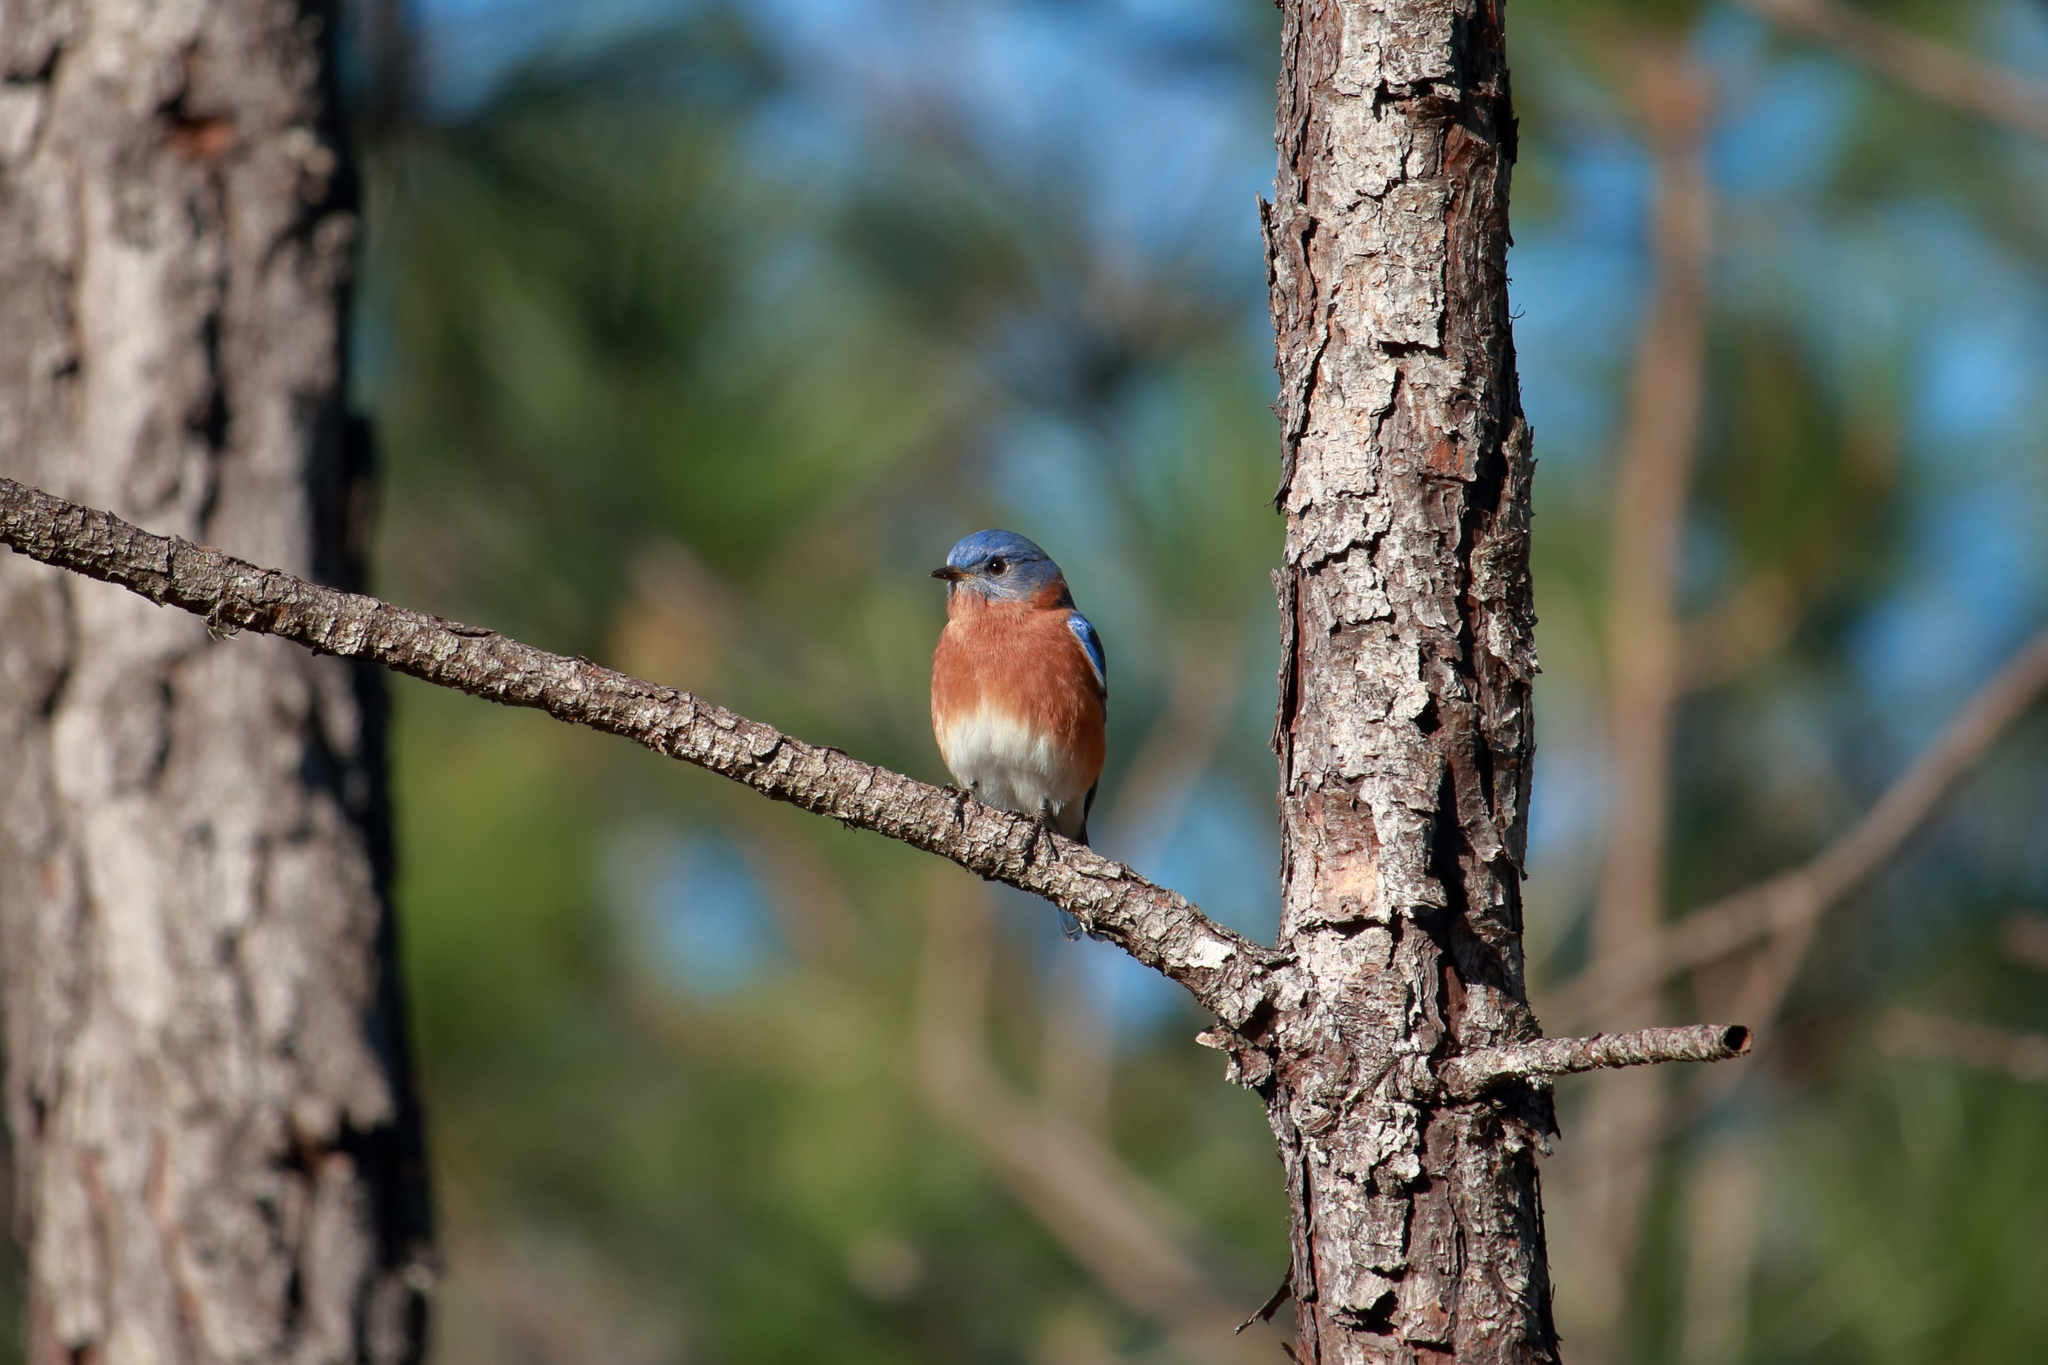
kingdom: Animalia
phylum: Chordata
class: Aves
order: Passeriformes
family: Turdidae
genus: Sialia
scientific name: Sialia sialis
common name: Eastern bluebird
